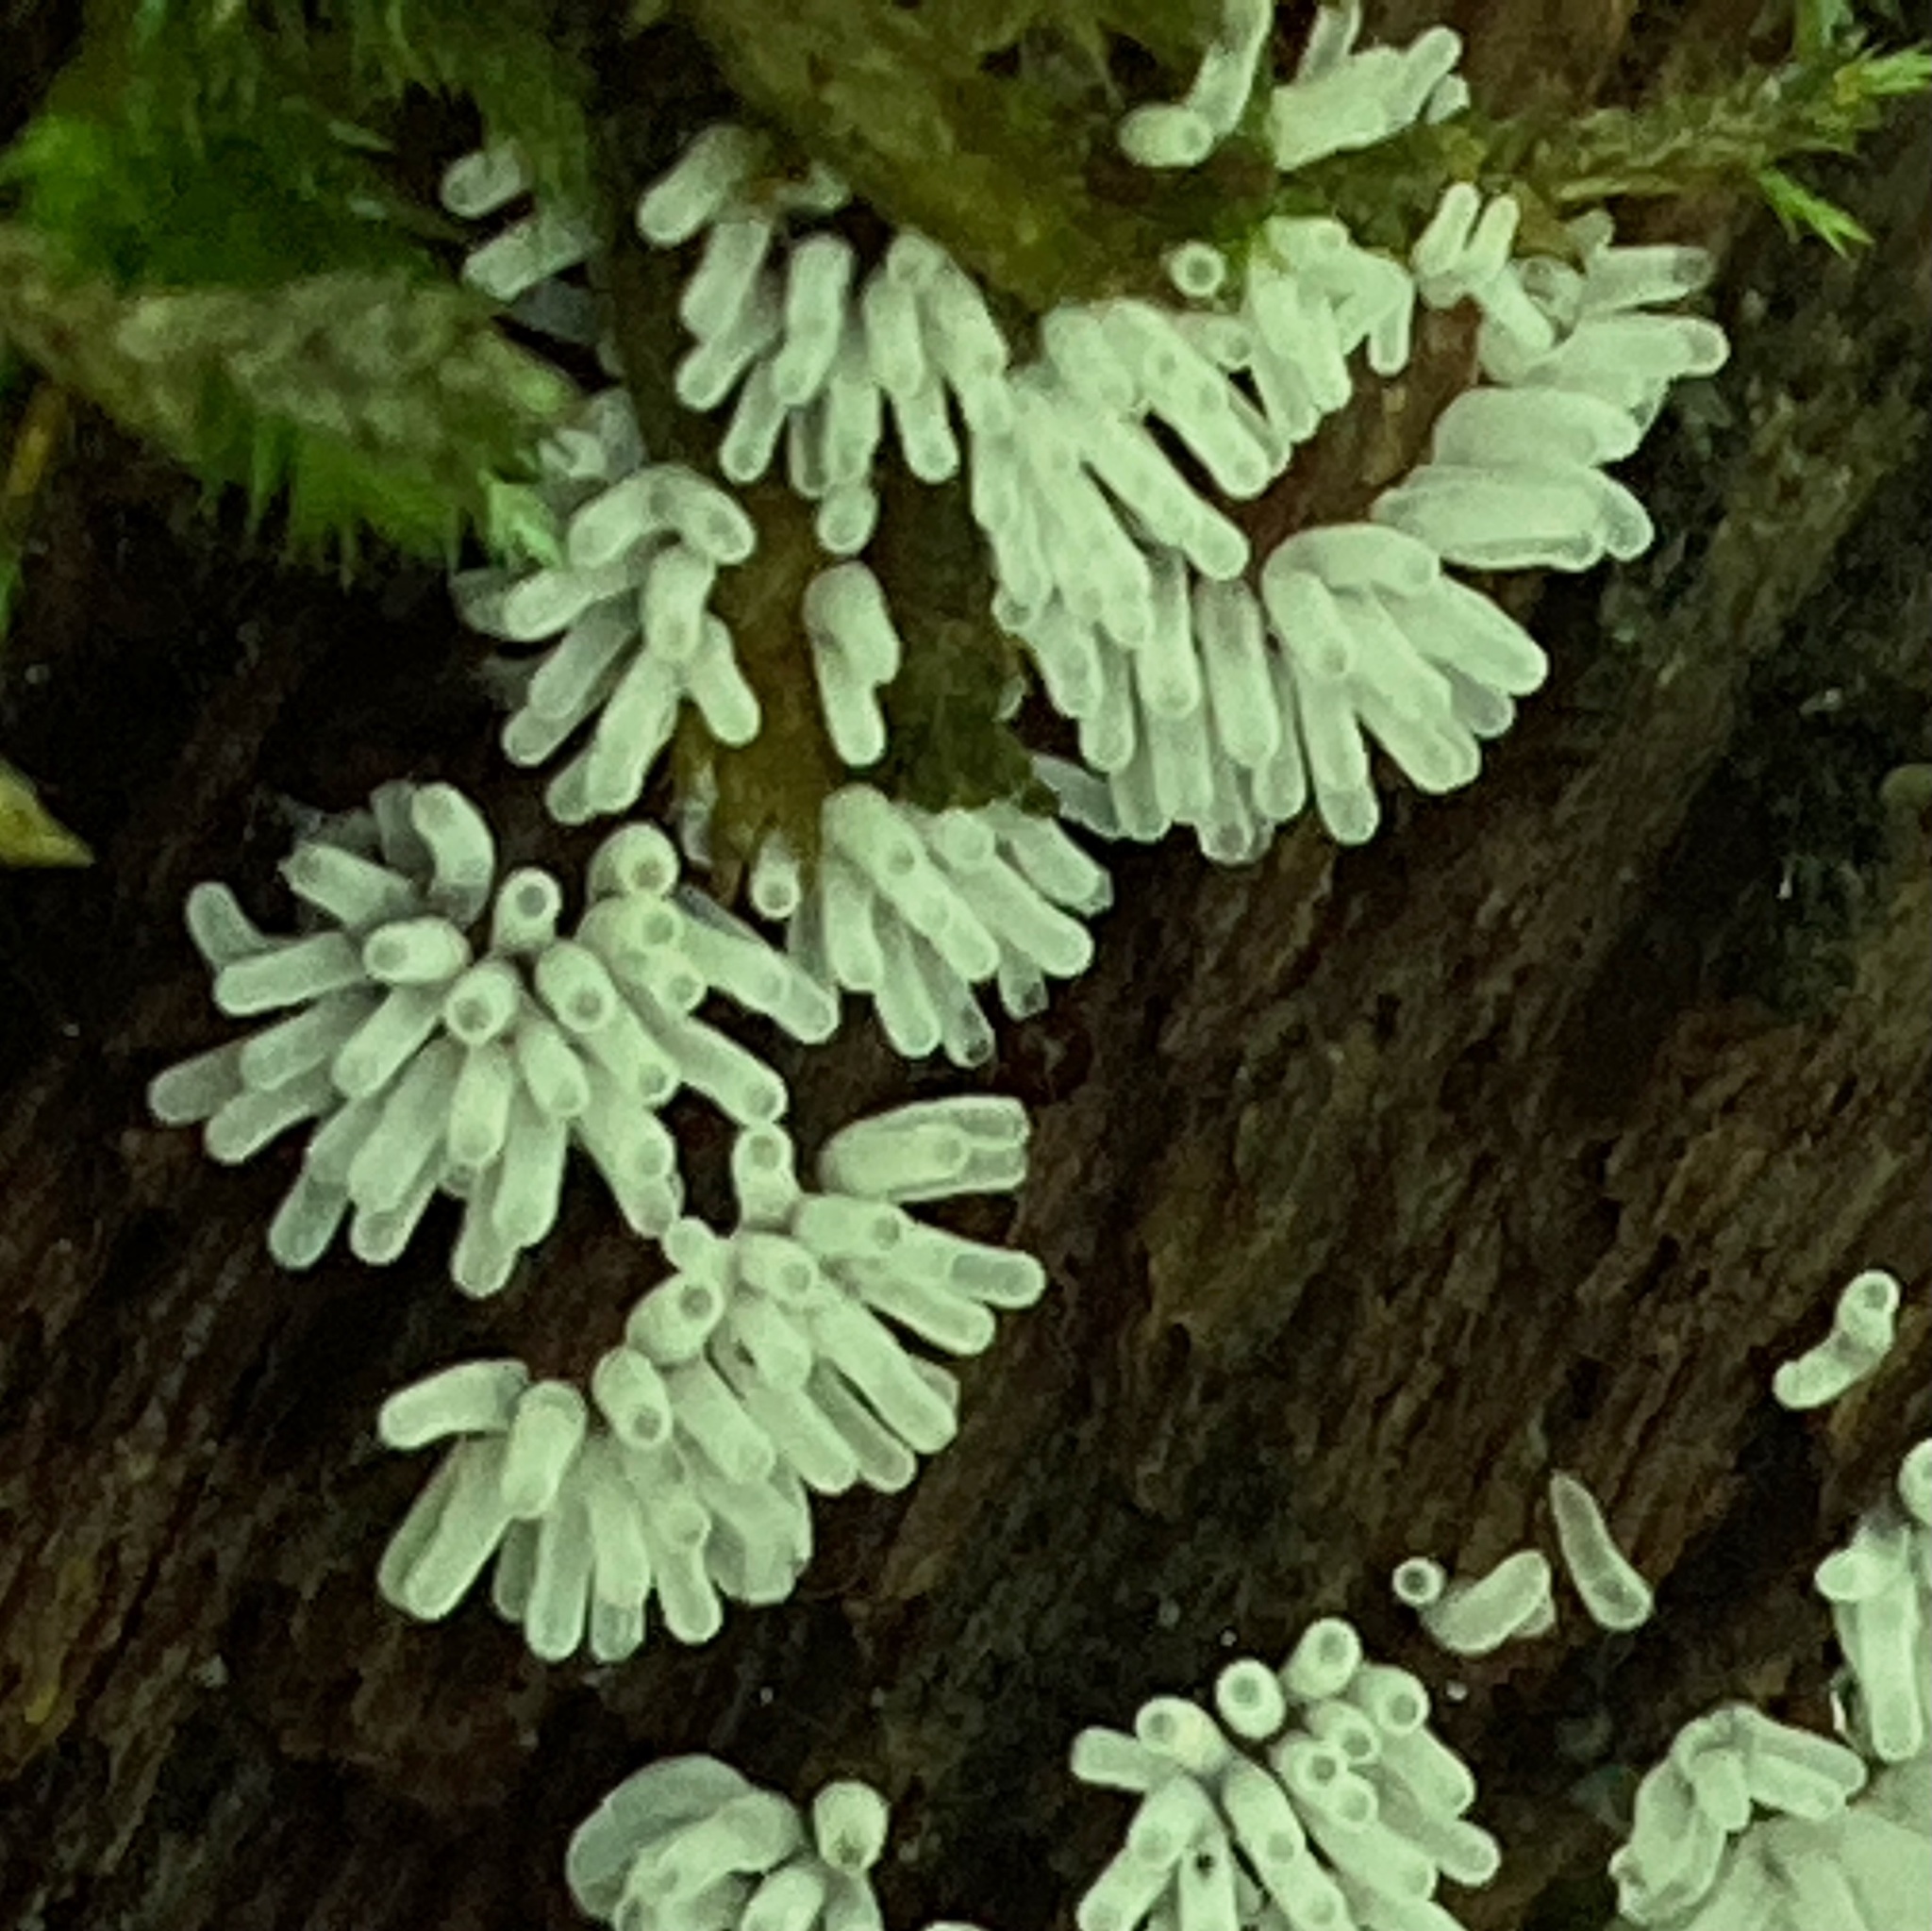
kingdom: Protozoa
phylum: Mycetozoa
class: Protosteliomycetes
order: Ceratiomyxales
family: Ceratiomyxaceae
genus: Ceratiomyxa
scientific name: Ceratiomyxa fruticulosa
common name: Honeycomb coral slime mold
